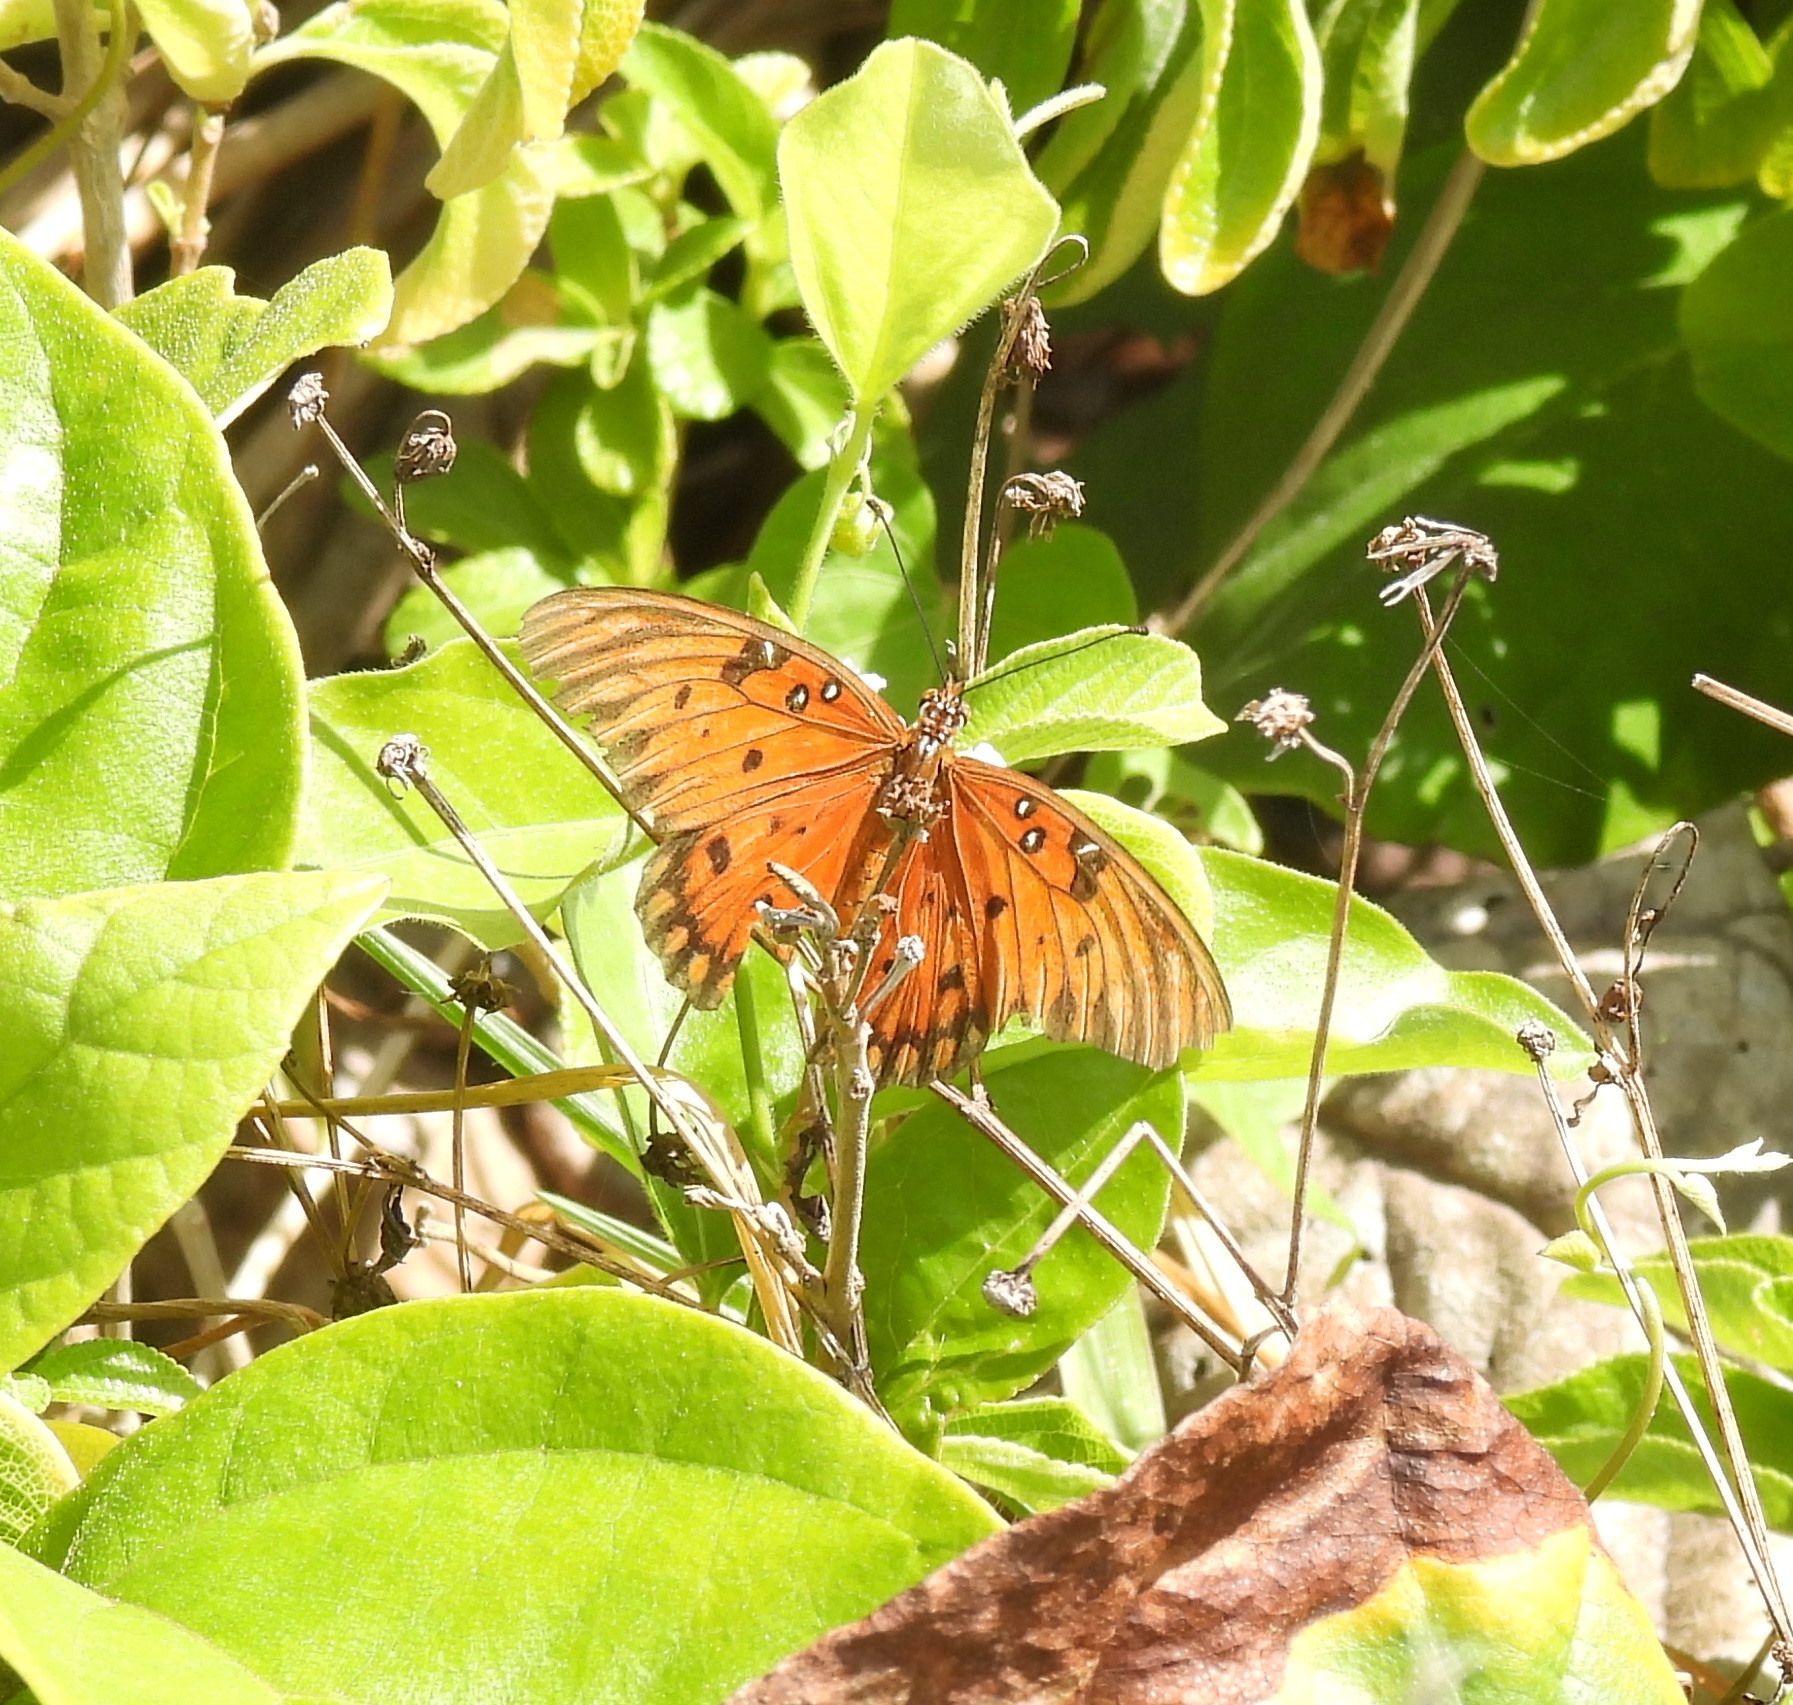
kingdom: Animalia
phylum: Arthropoda
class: Insecta
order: Lepidoptera
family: Nymphalidae
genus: Dione
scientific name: Dione vanillae
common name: Gulf fritillary
